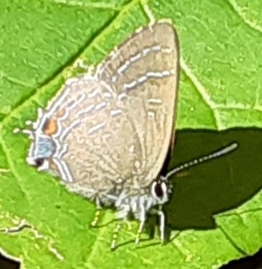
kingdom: Animalia
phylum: Arthropoda
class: Insecta
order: Lepidoptera
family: Lycaenidae
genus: Satyrium
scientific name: Satyrium calanus
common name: Banded hairstreak
